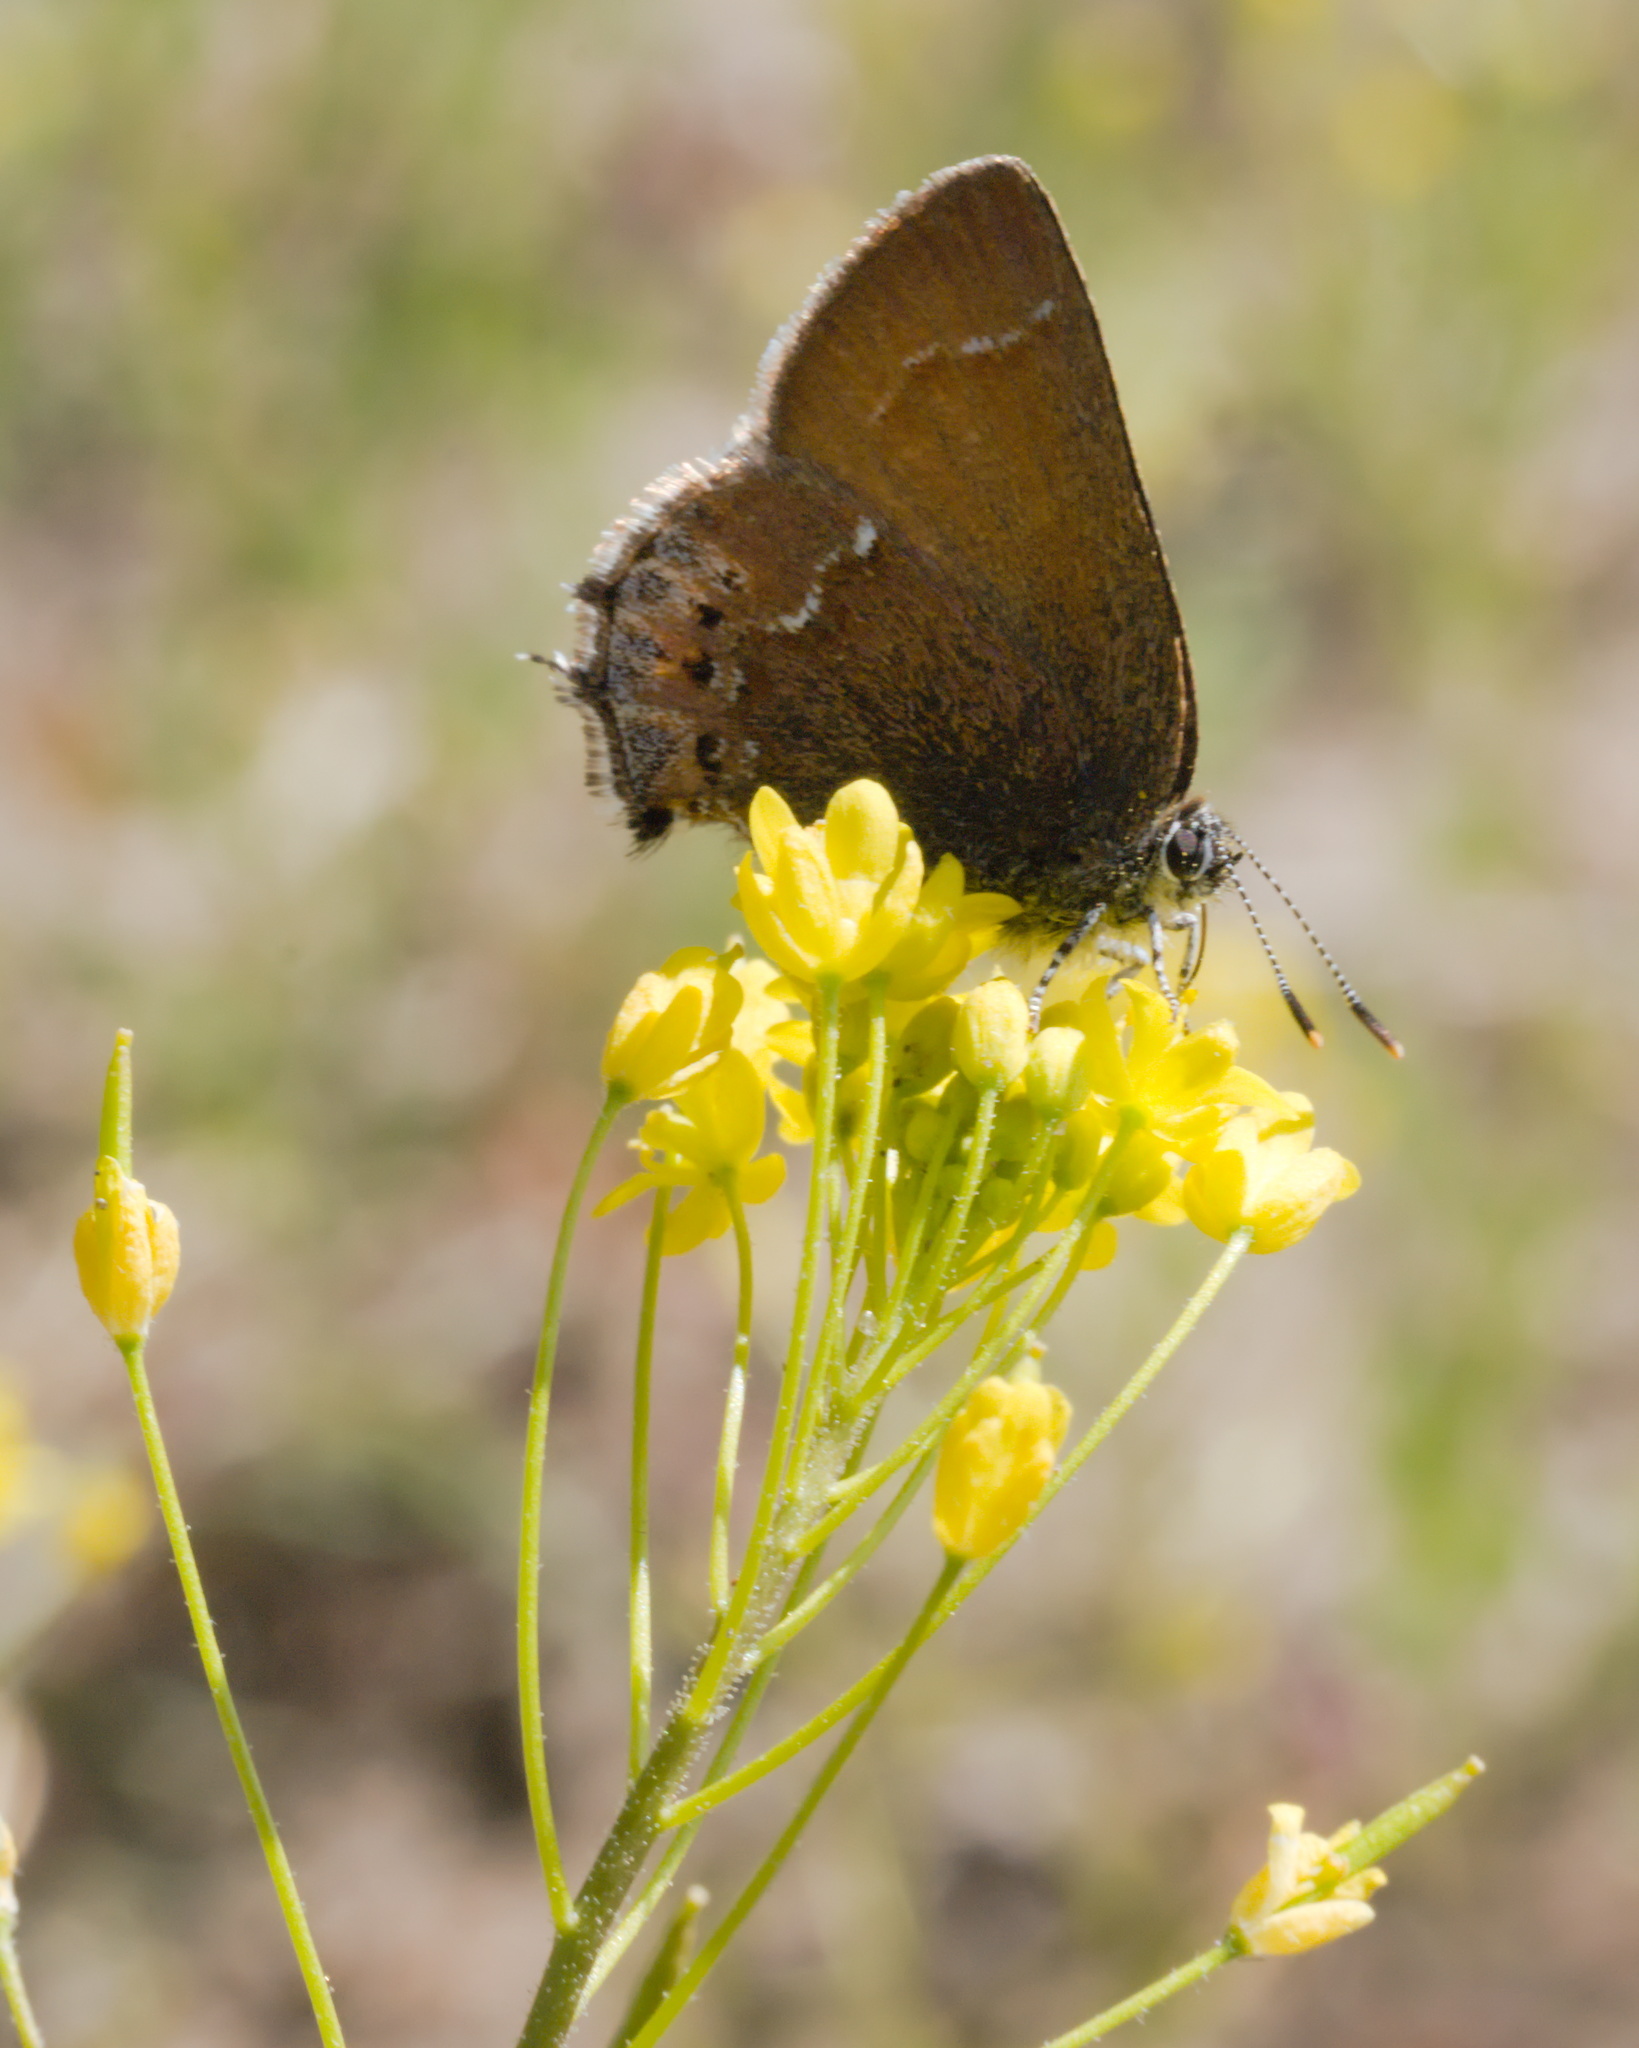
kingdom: Animalia
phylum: Arthropoda
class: Insecta
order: Lepidoptera
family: Lycaenidae
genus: Mitoura
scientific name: Mitoura gryneus
